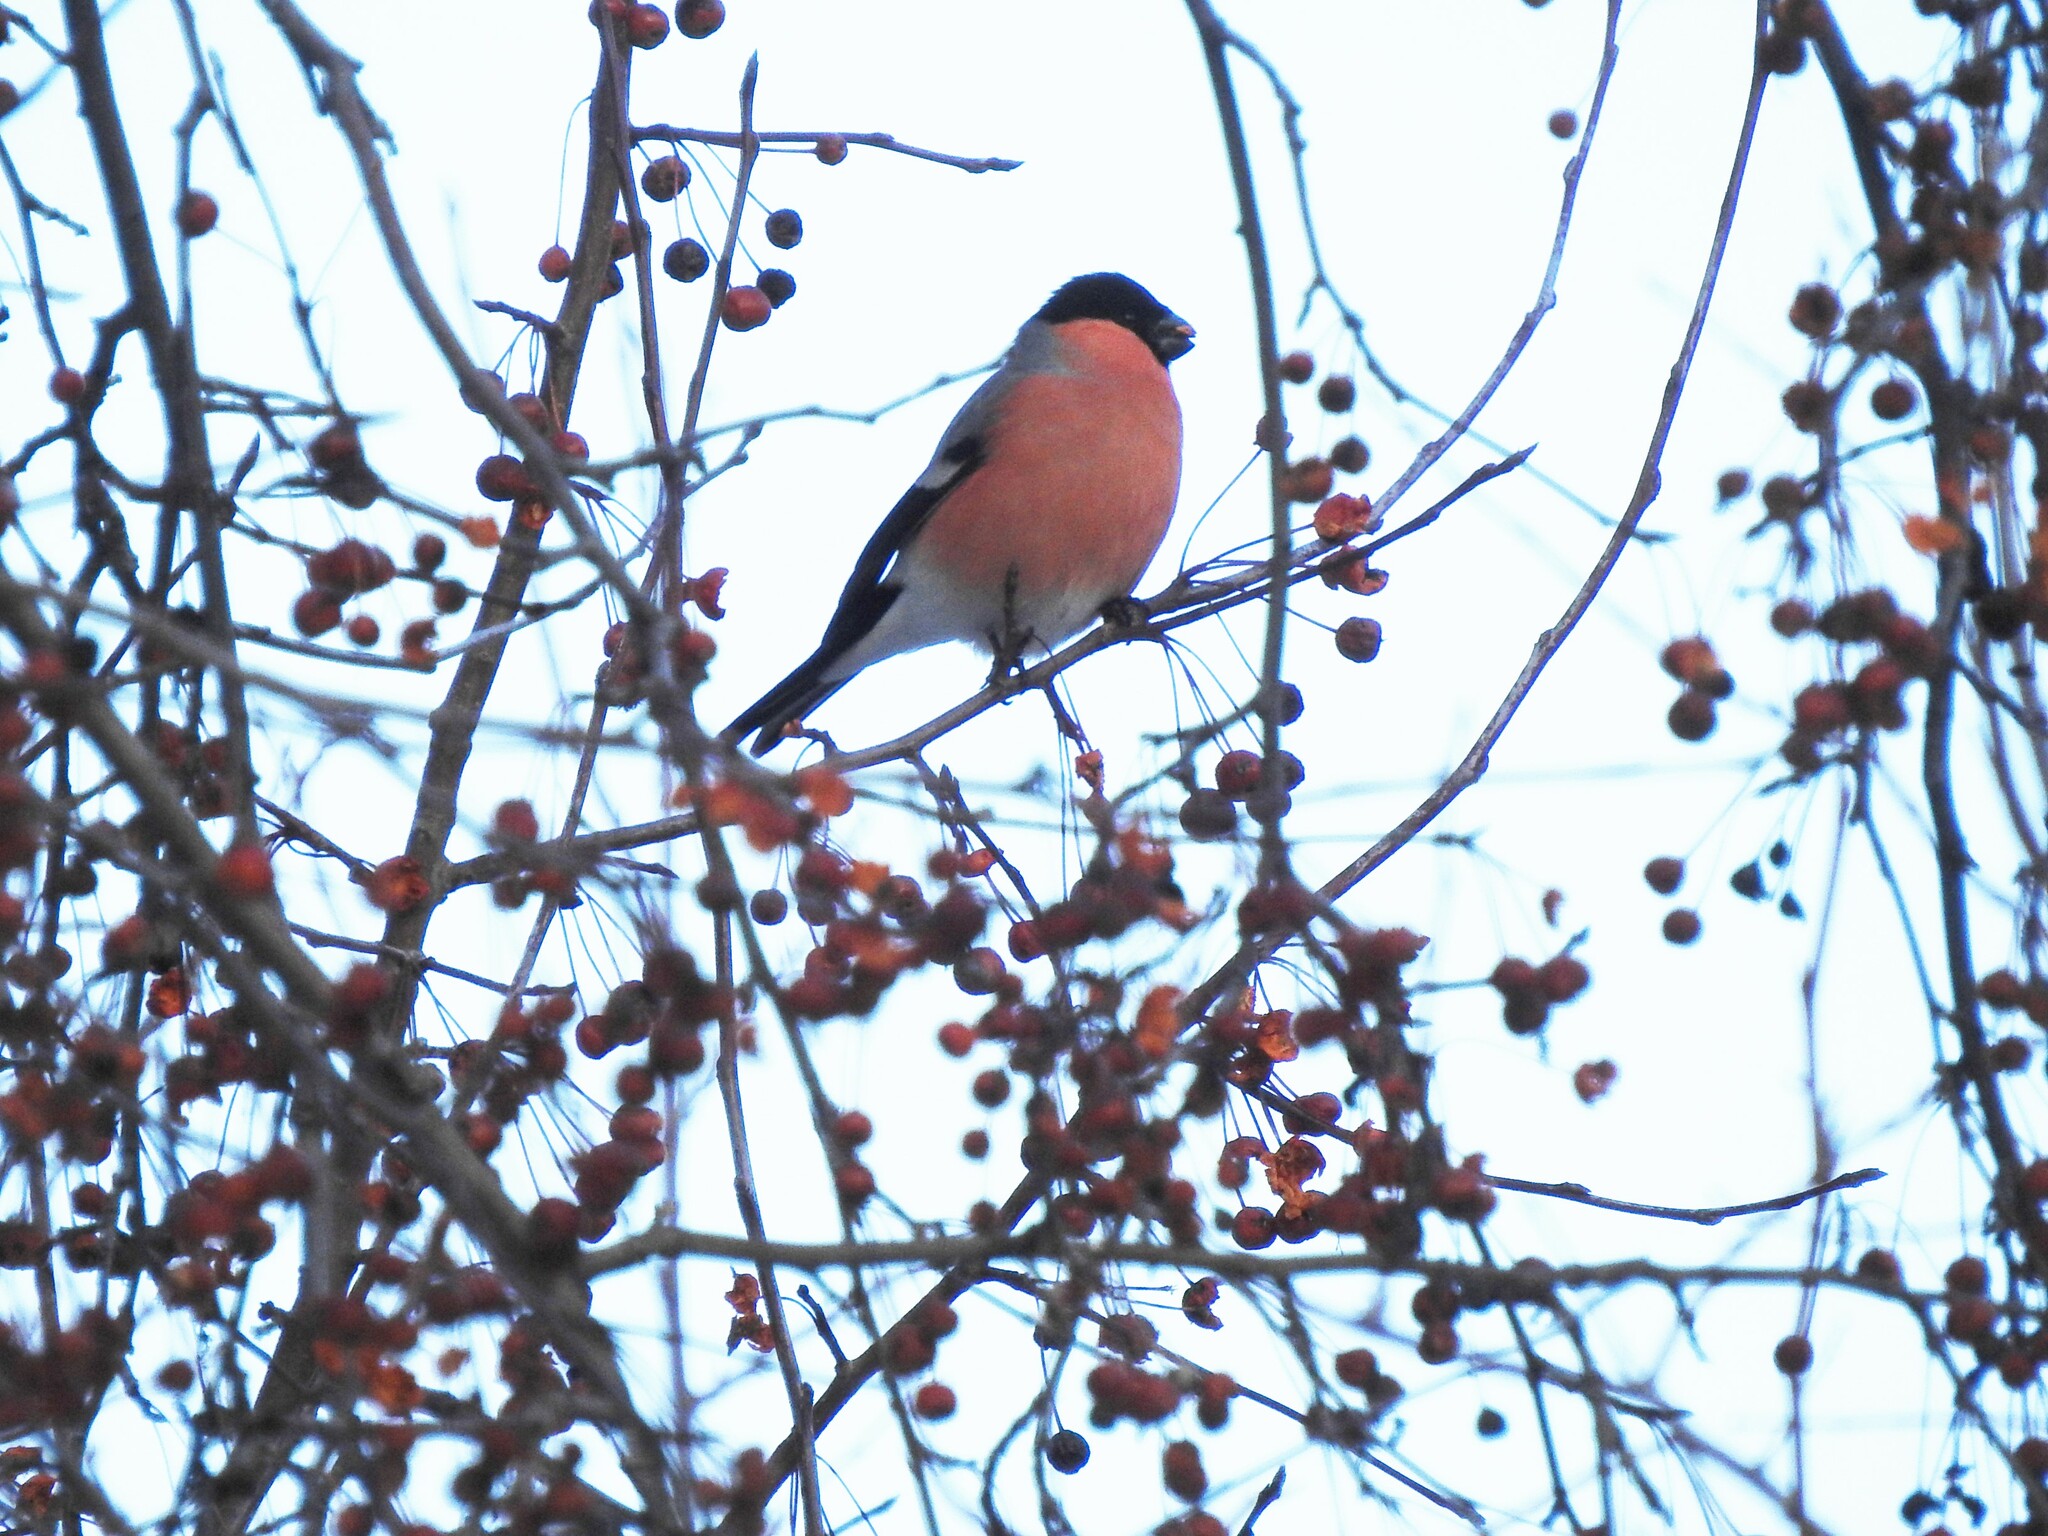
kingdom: Animalia
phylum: Chordata
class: Aves
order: Passeriformes
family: Fringillidae
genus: Pyrrhula
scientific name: Pyrrhula pyrrhula
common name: Eurasian bullfinch
